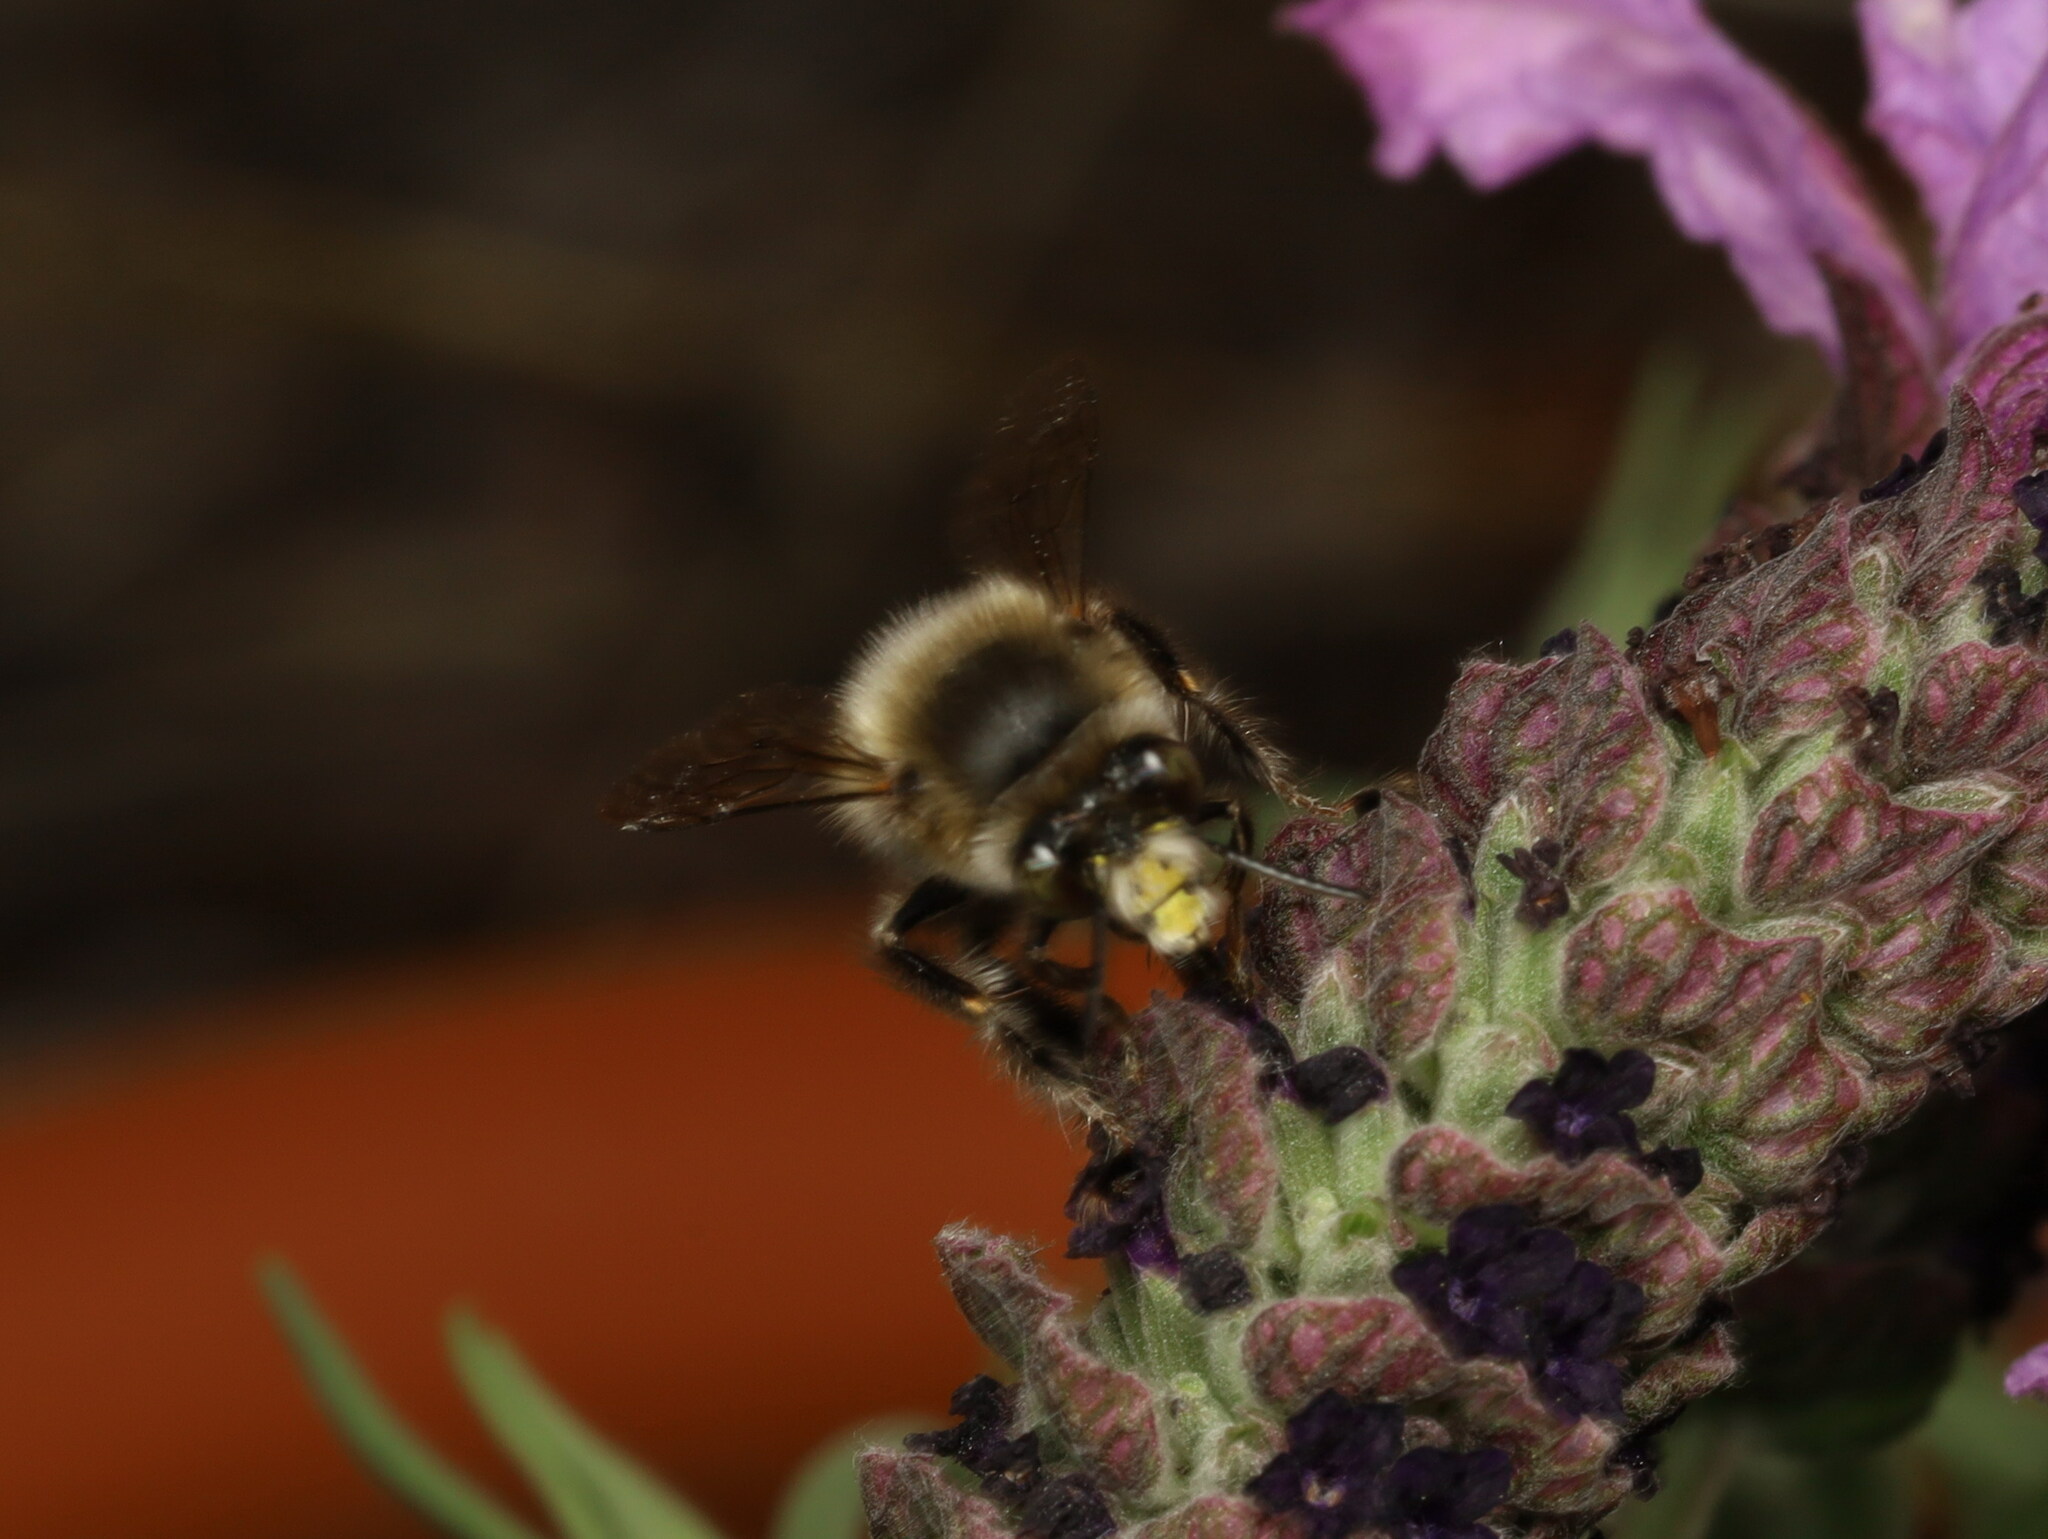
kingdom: Animalia
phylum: Arthropoda
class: Insecta
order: Hymenoptera
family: Apidae
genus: Anthophora
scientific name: Anthophora dispar
